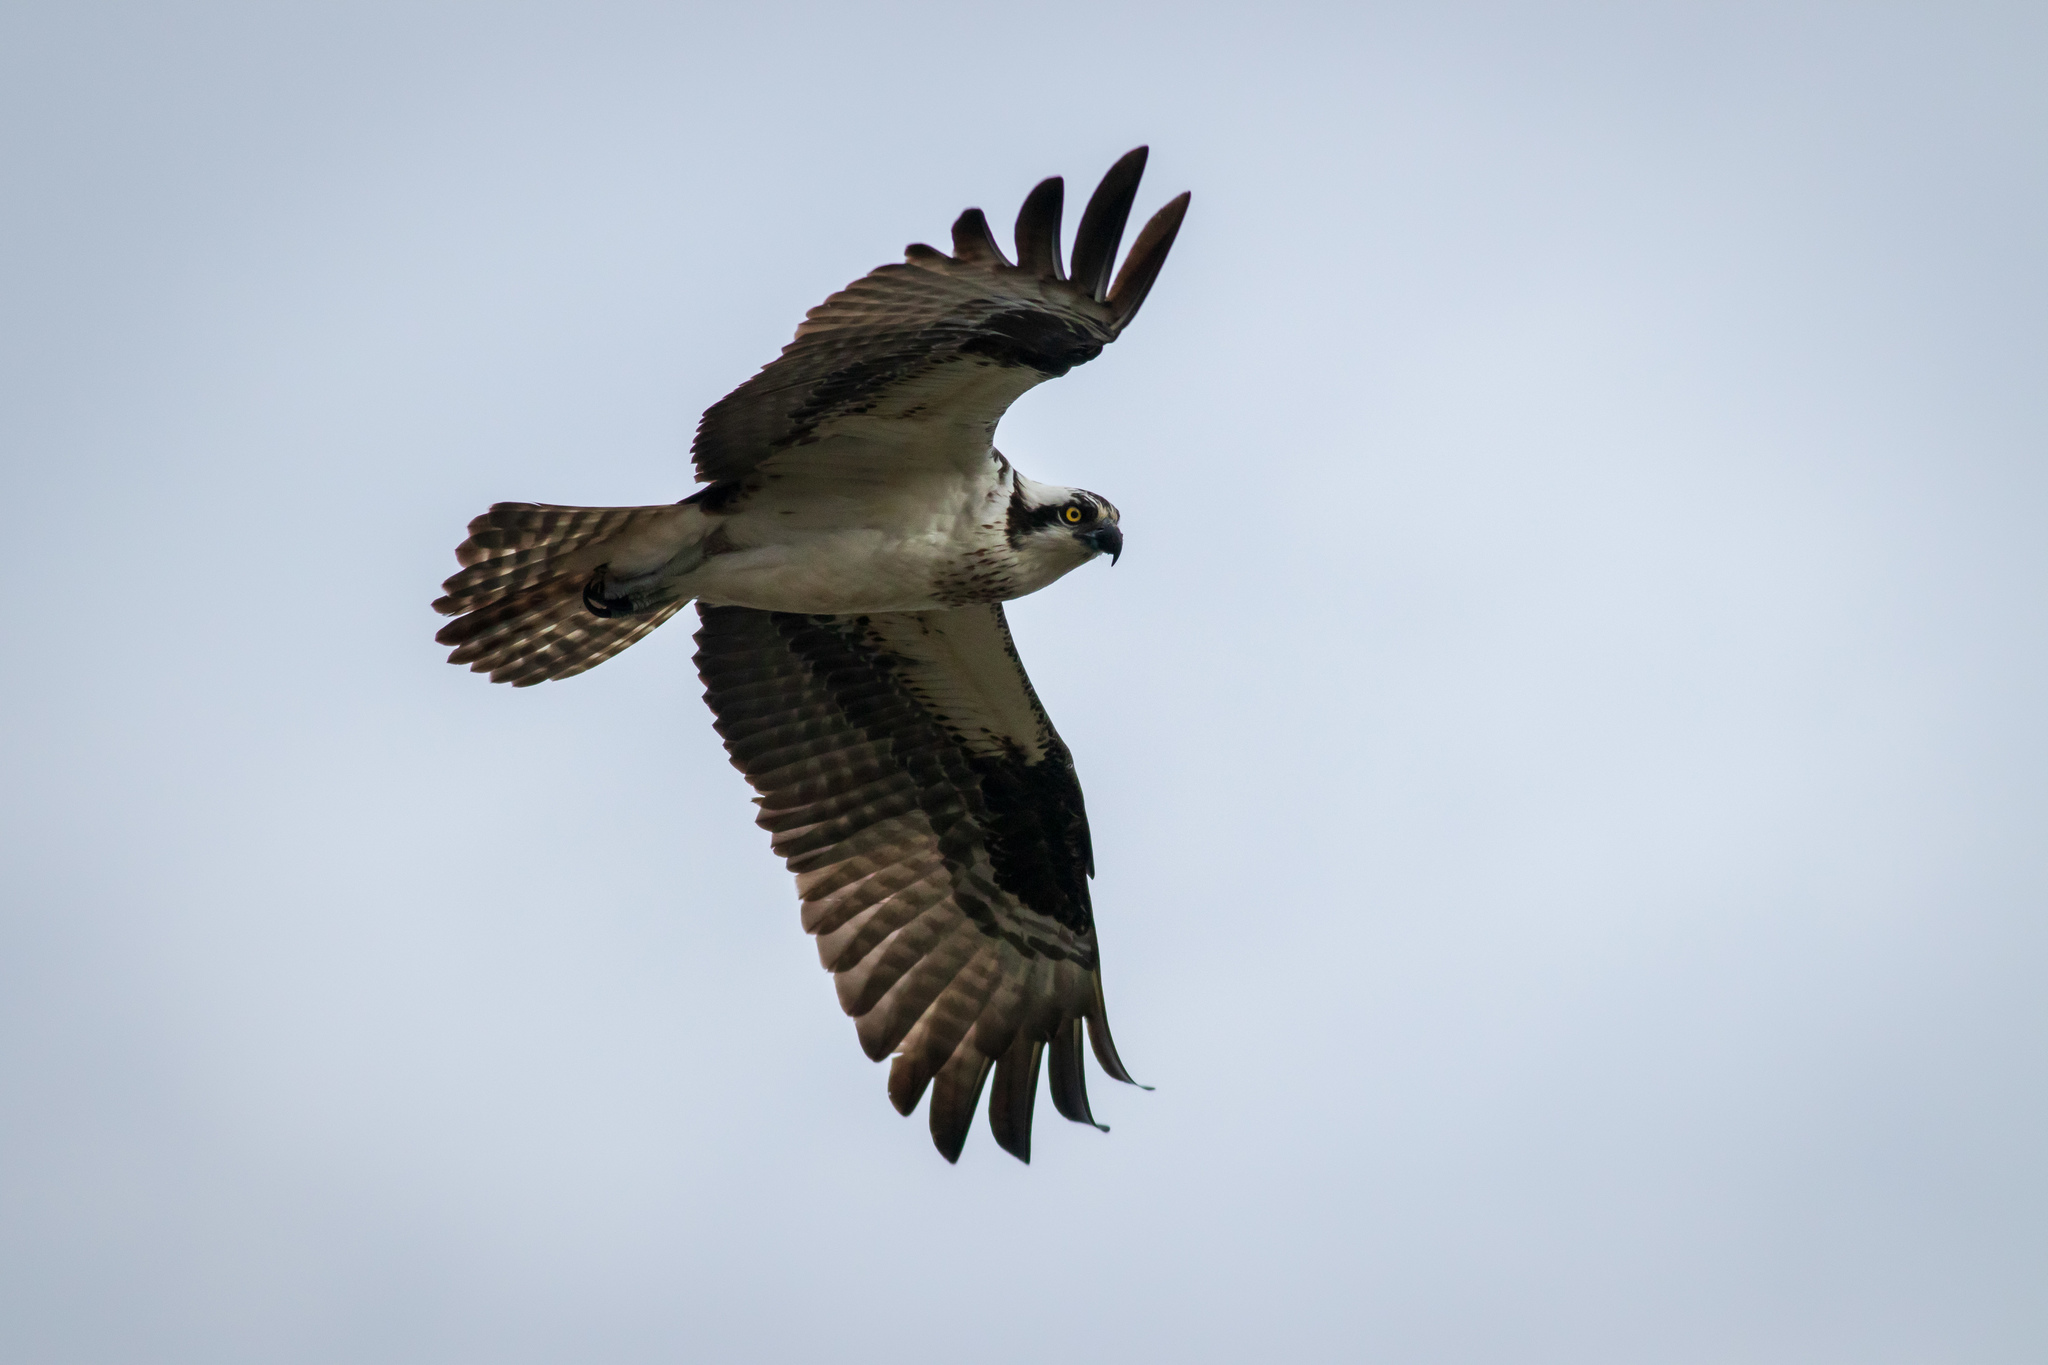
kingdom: Animalia
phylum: Chordata
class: Aves
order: Accipitriformes
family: Pandionidae
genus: Pandion
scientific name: Pandion haliaetus
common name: Osprey
